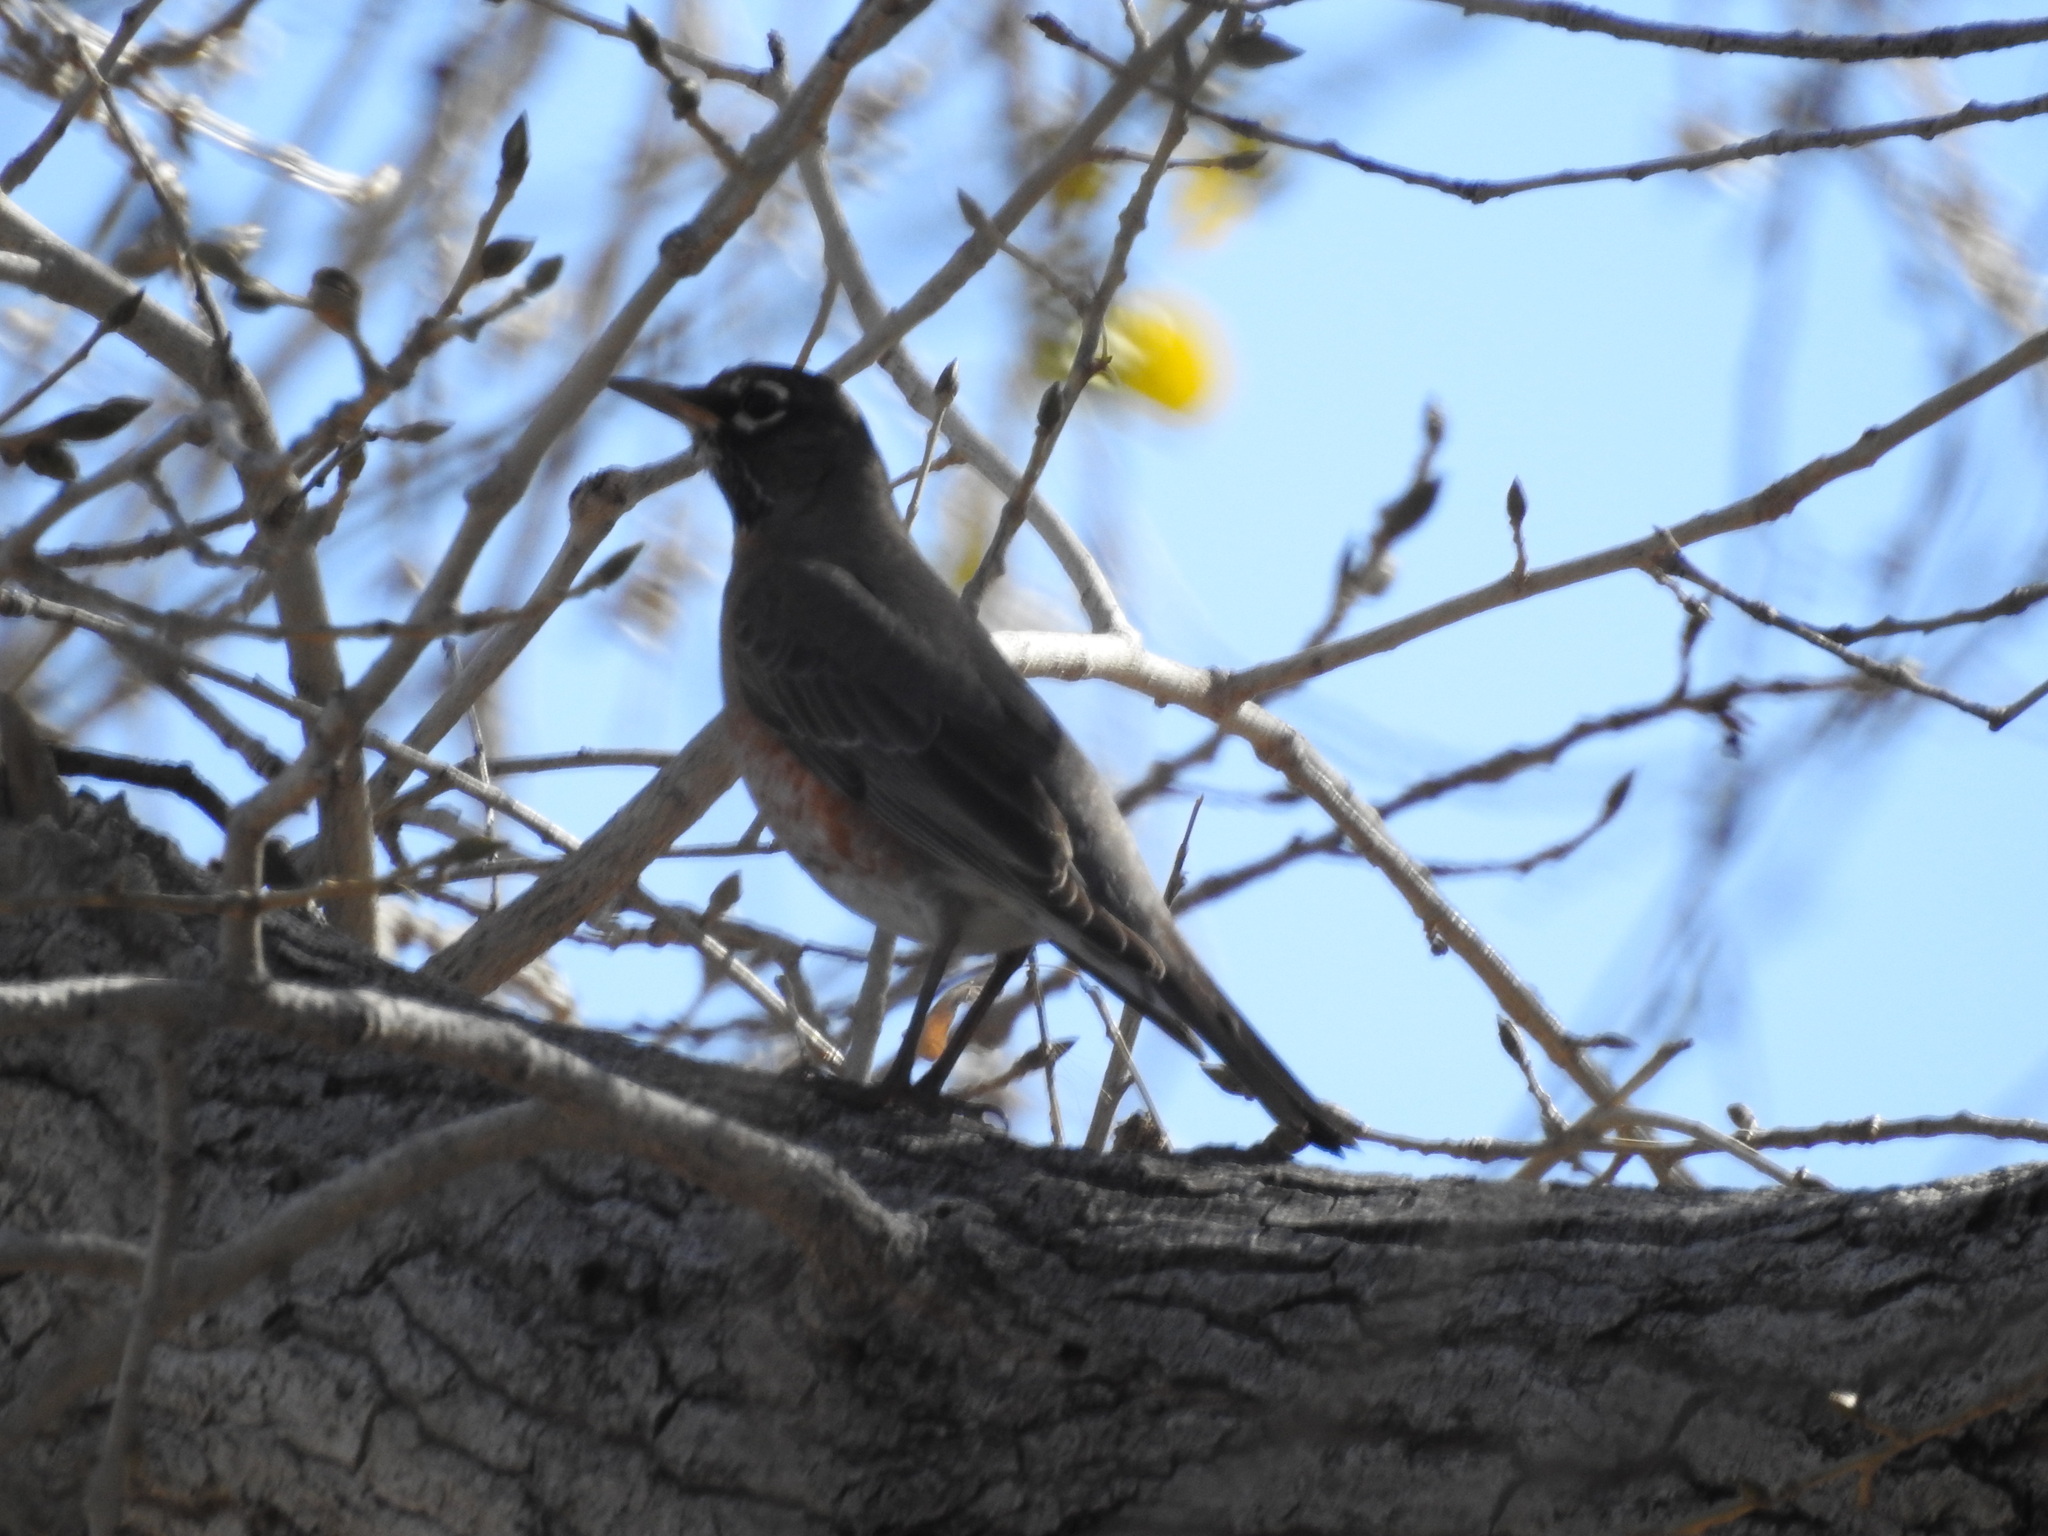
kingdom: Animalia
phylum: Chordata
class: Aves
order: Passeriformes
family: Turdidae
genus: Turdus
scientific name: Turdus migratorius
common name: American robin
